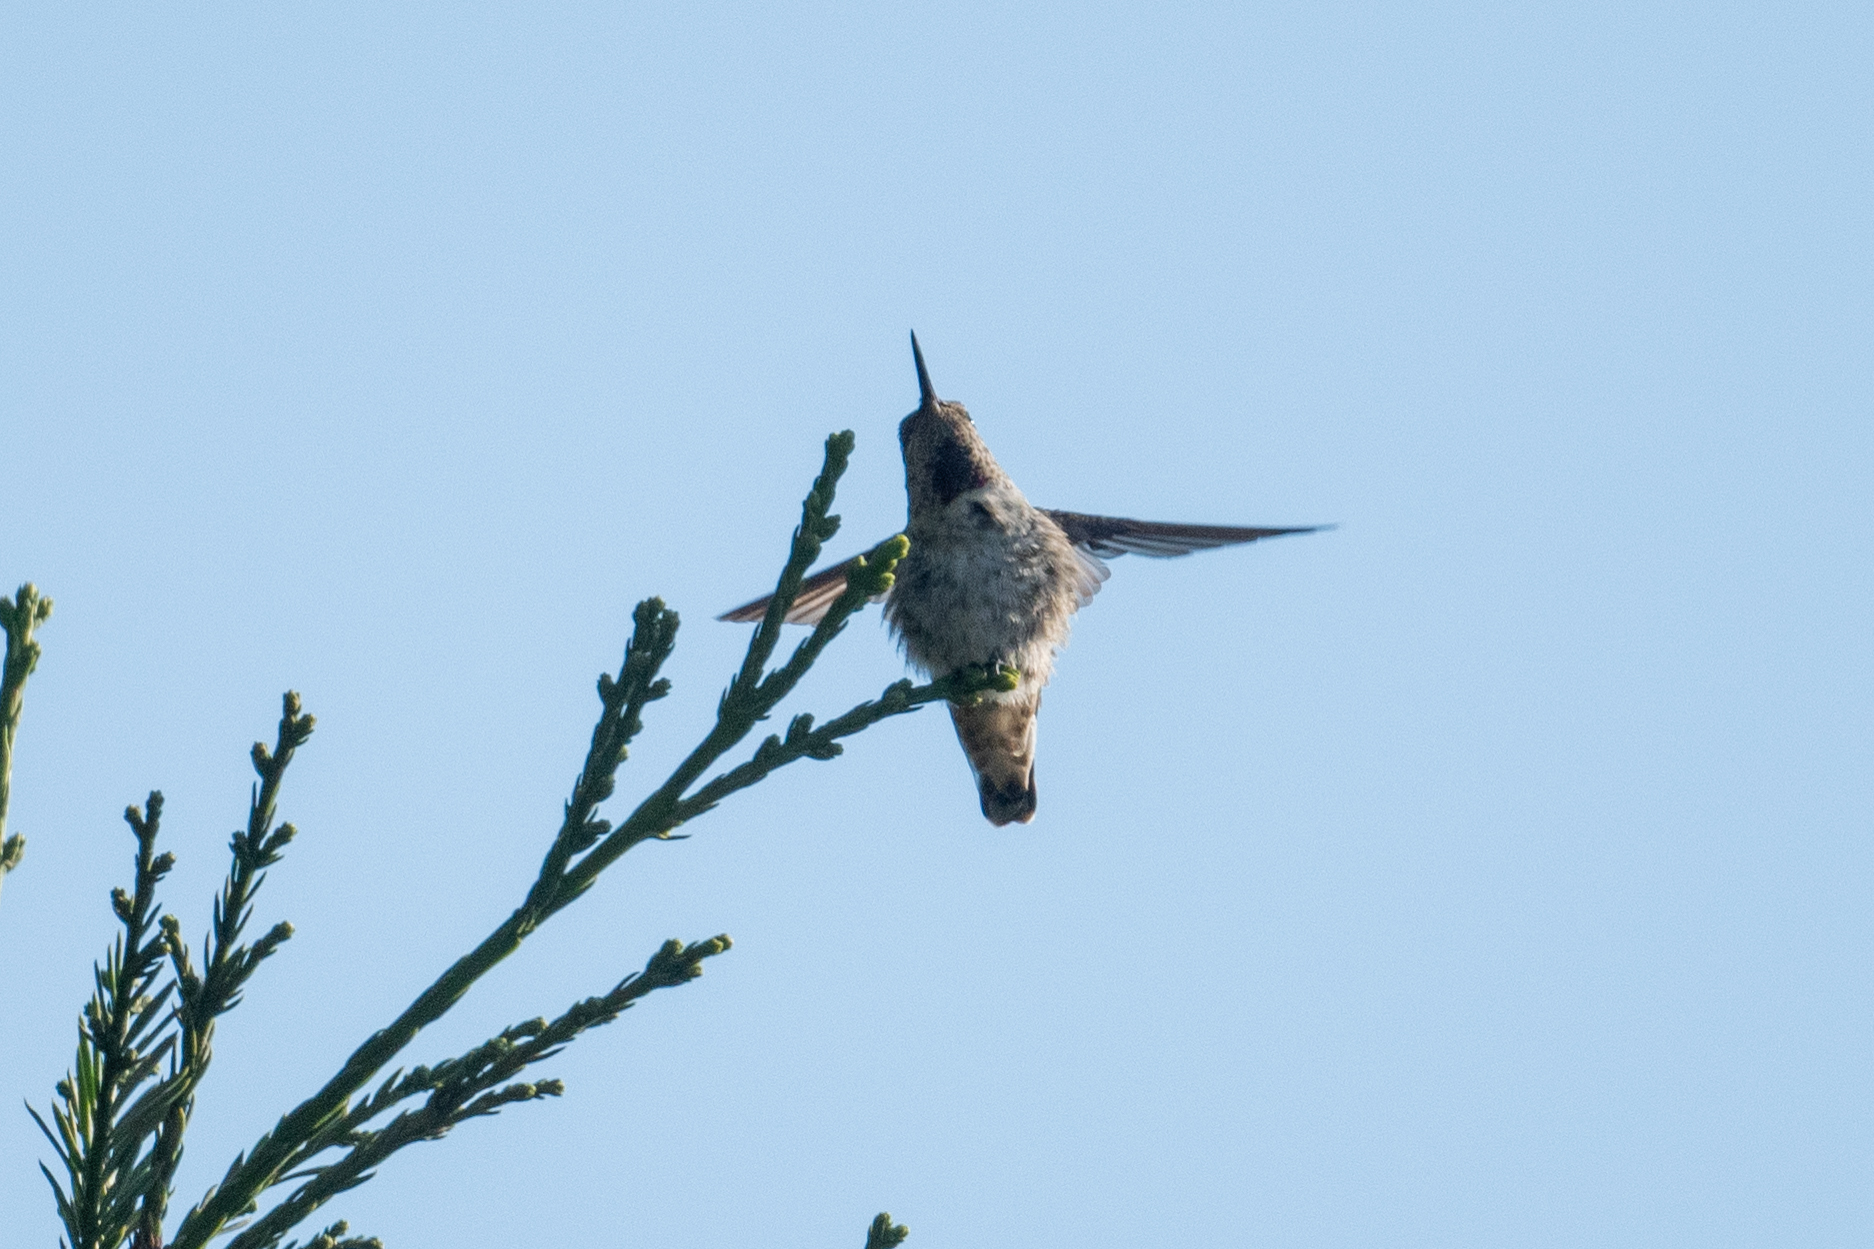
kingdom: Animalia
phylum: Chordata
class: Aves
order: Apodiformes
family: Trochilidae
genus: Calypte
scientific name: Calypte anna
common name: Anna's hummingbird
